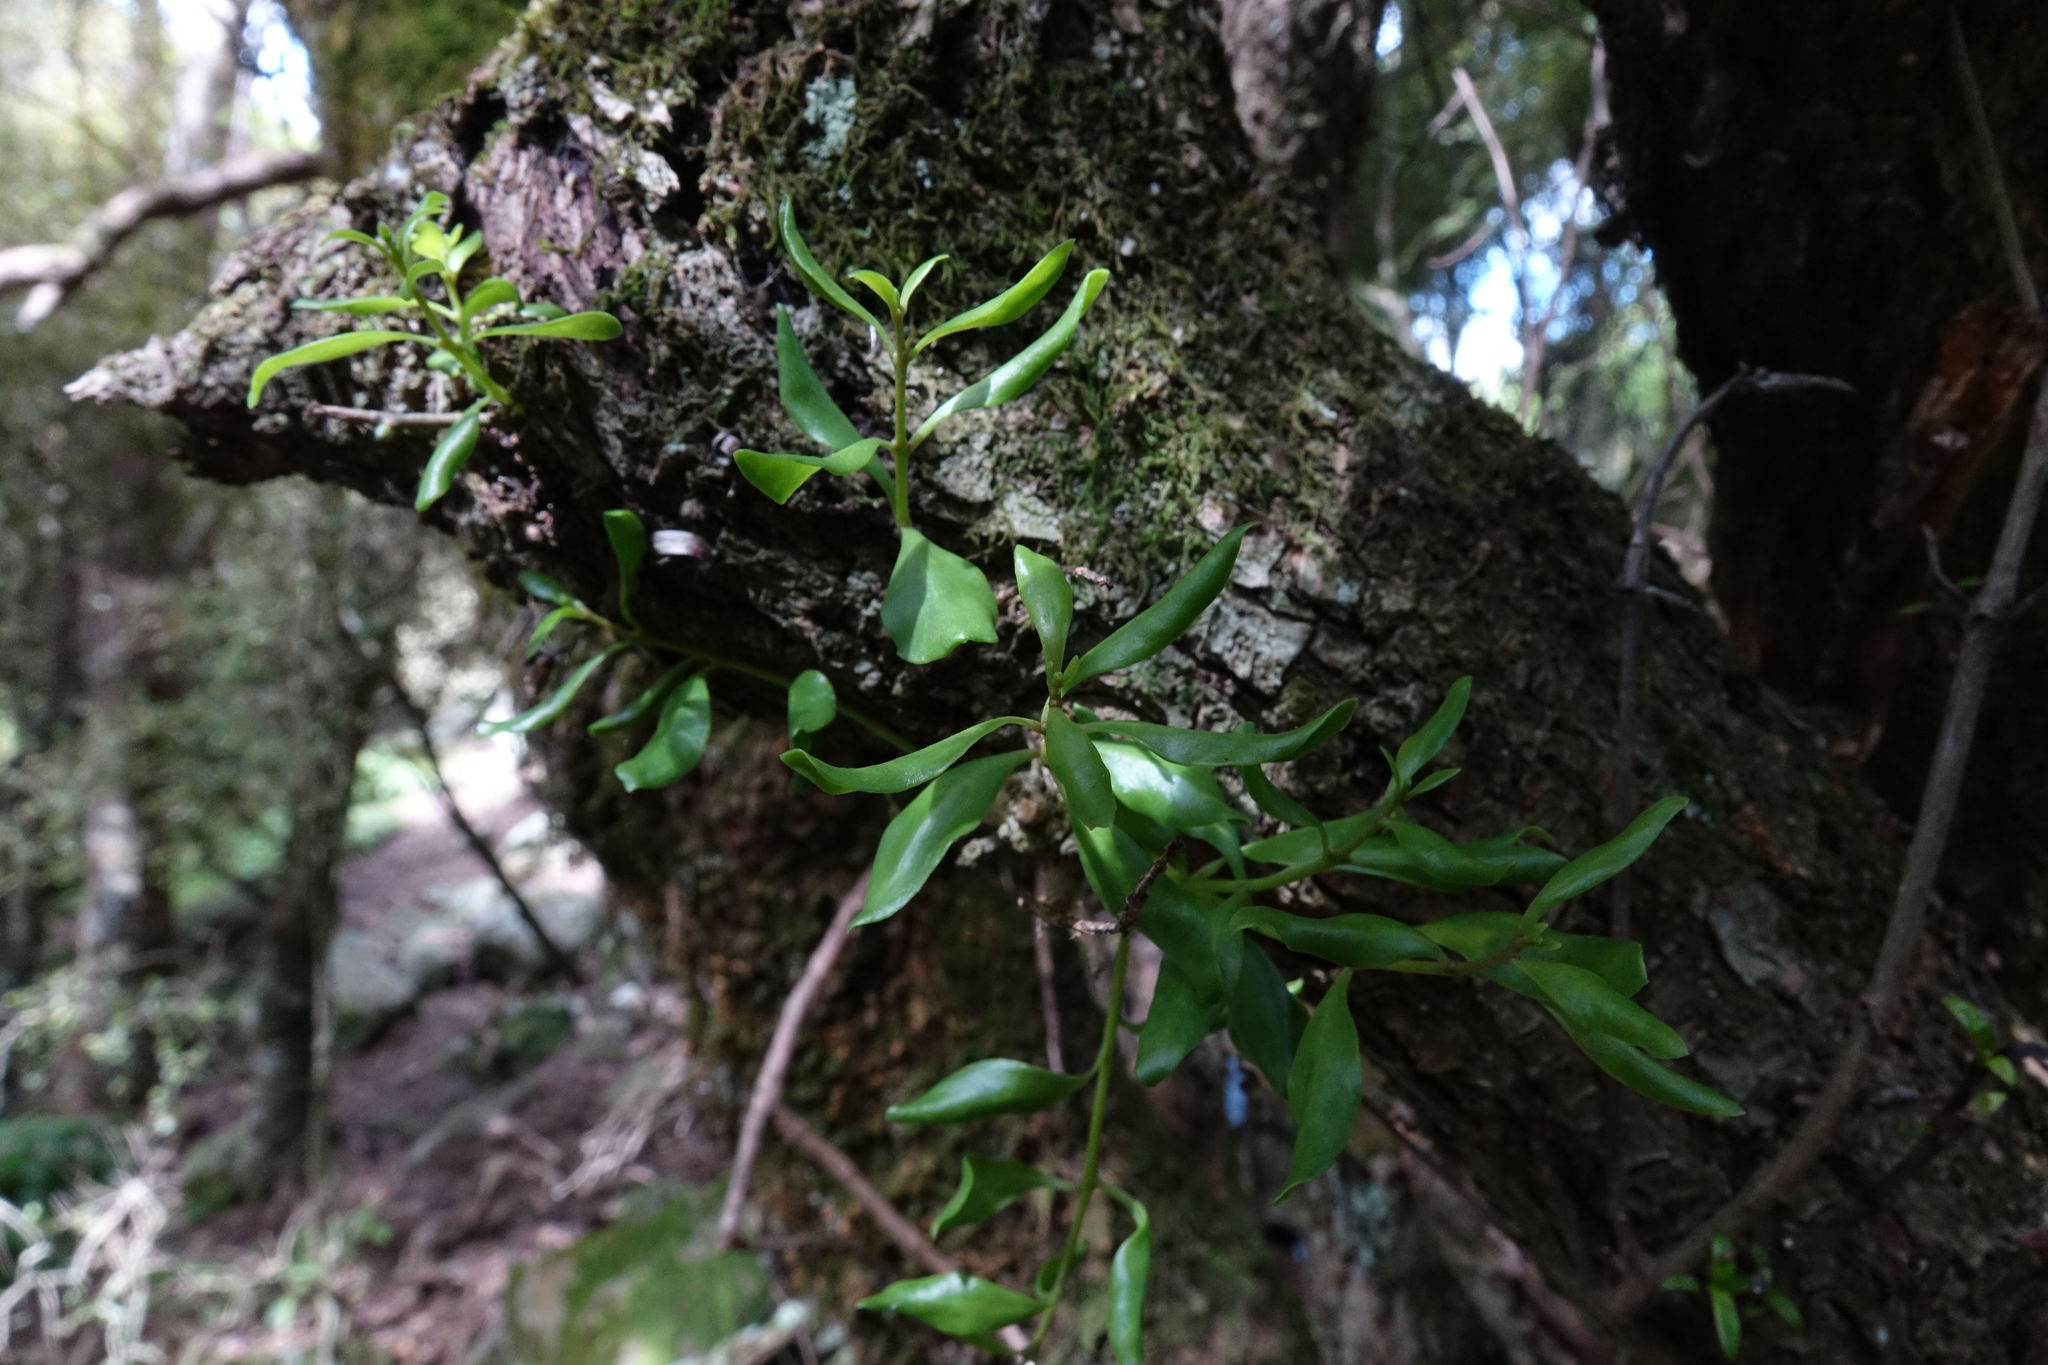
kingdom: Plantae
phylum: Tracheophyta
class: Magnoliopsida
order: Santalales
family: Loranthaceae
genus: Tupeia
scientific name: Tupeia antarctica
